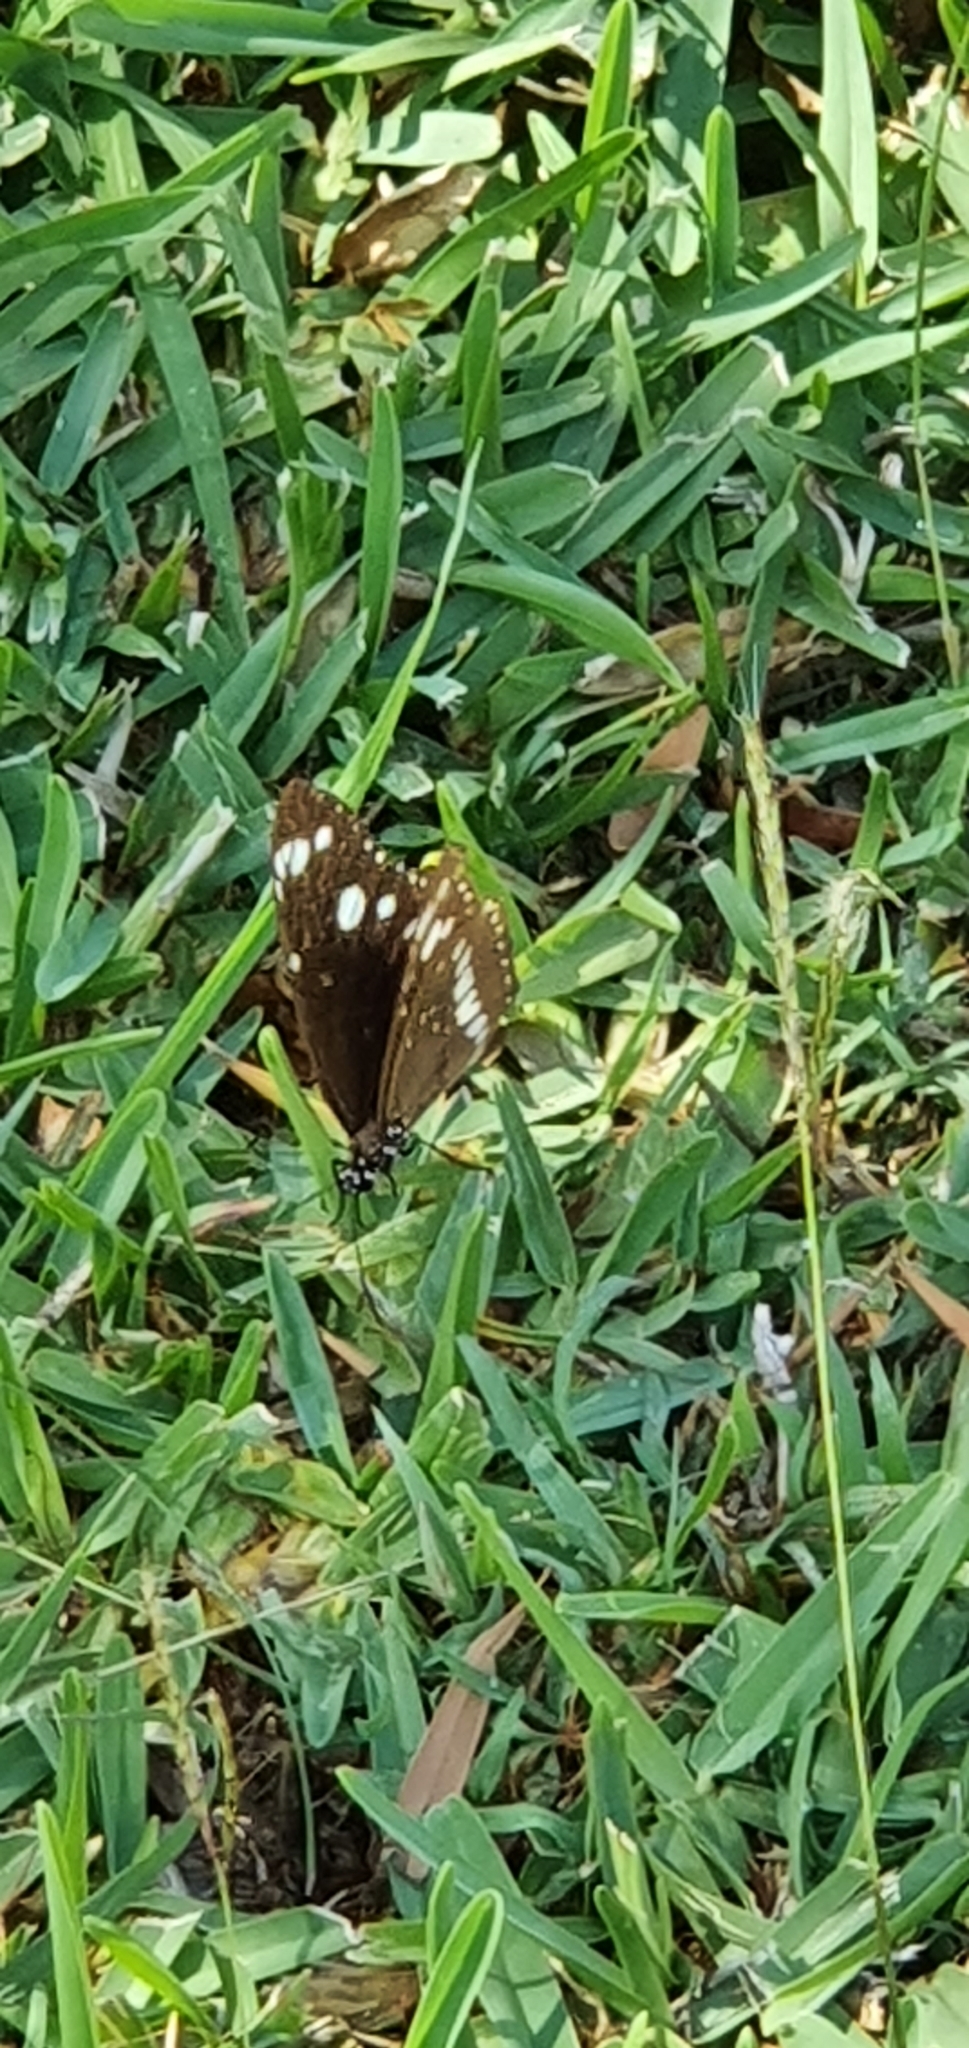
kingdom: Animalia
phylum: Arthropoda
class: Insecta
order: Lepidoptera
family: Nymphalidae
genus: Euploea
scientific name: Euploea core
